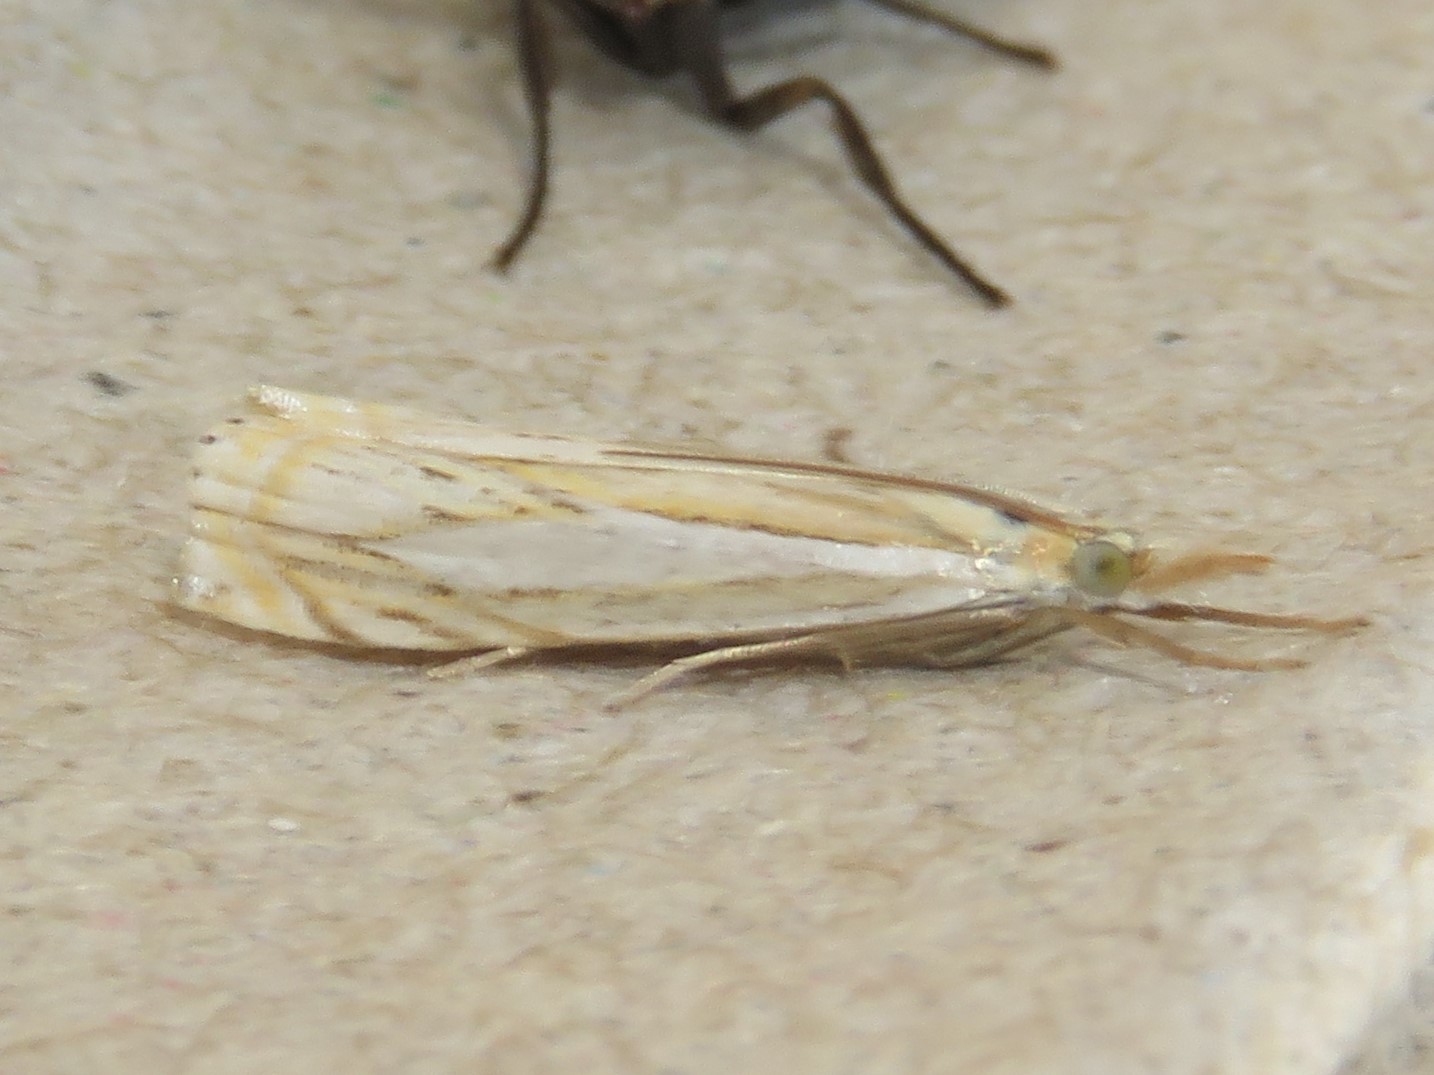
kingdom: Animalia
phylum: Arthropoda
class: Insecta
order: Lepidoptera
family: Crambidae
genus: Crambus
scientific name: Crambus saltuellus
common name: Pasture grass-veneer
